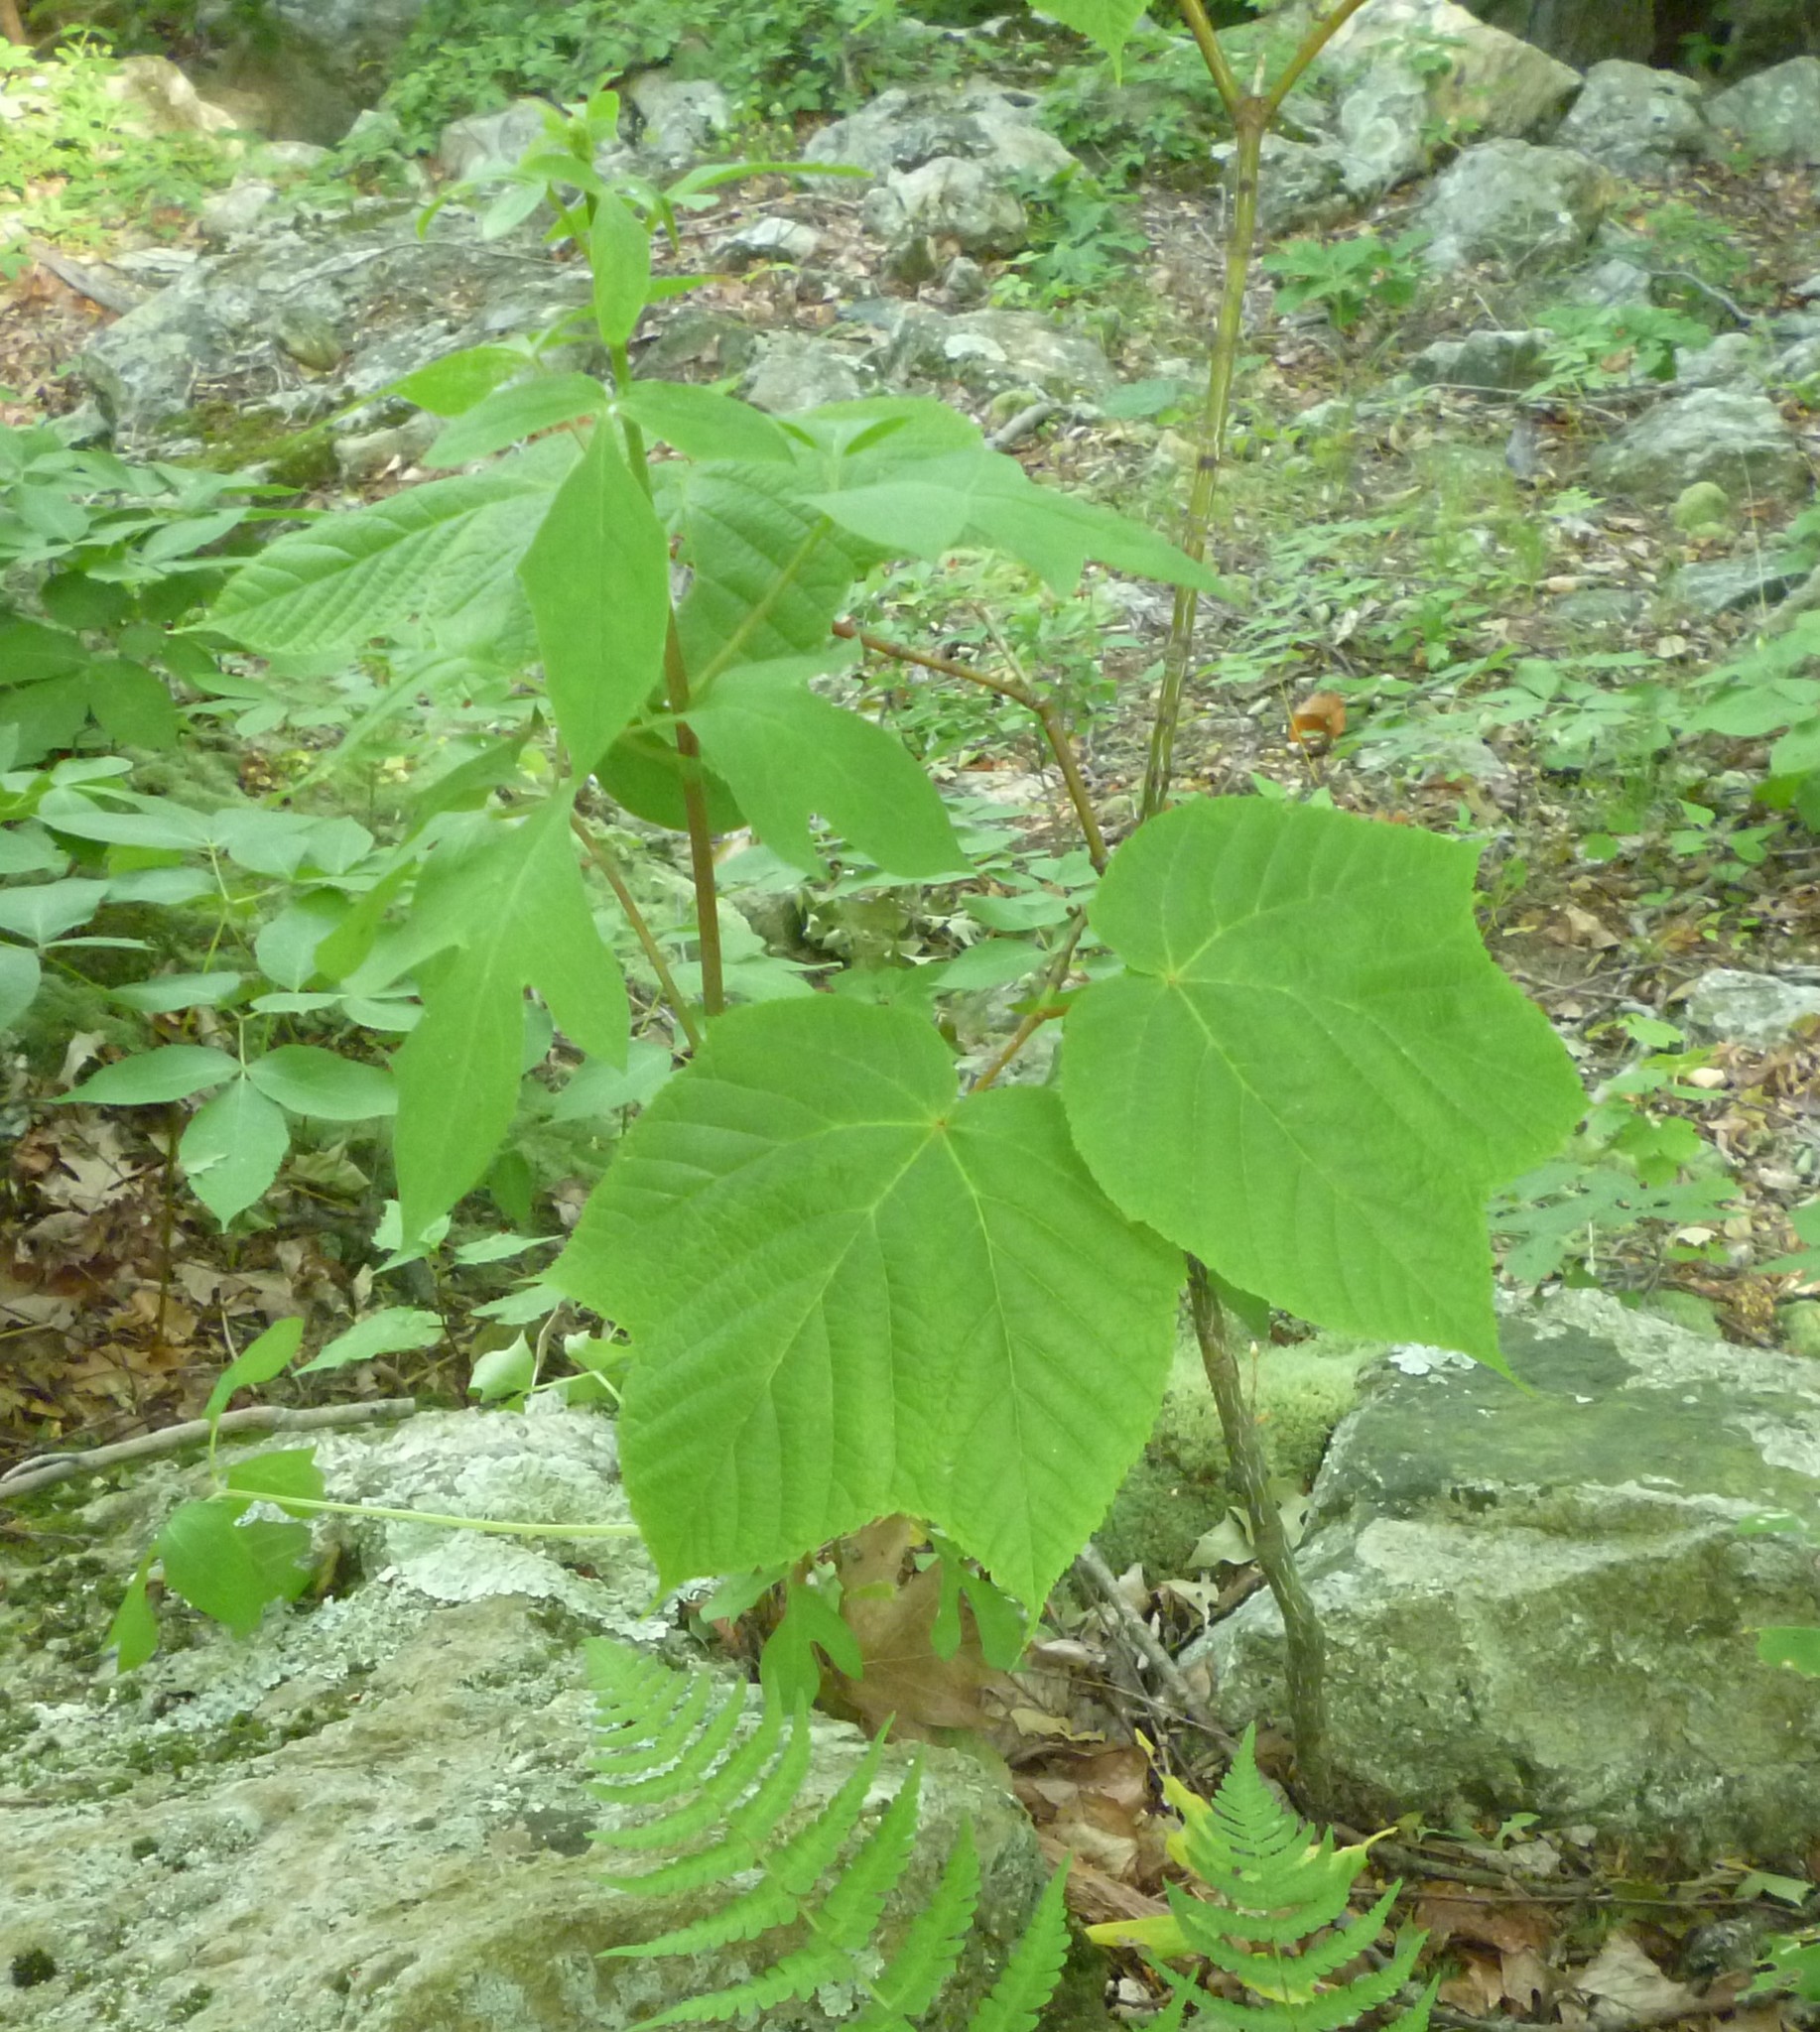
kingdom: Plantae
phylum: Tracheophyta
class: Magnoliopsida
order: Sapindales
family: Sapindaceae
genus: Acer
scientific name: Acer pensylvanicum
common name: Moosewood
